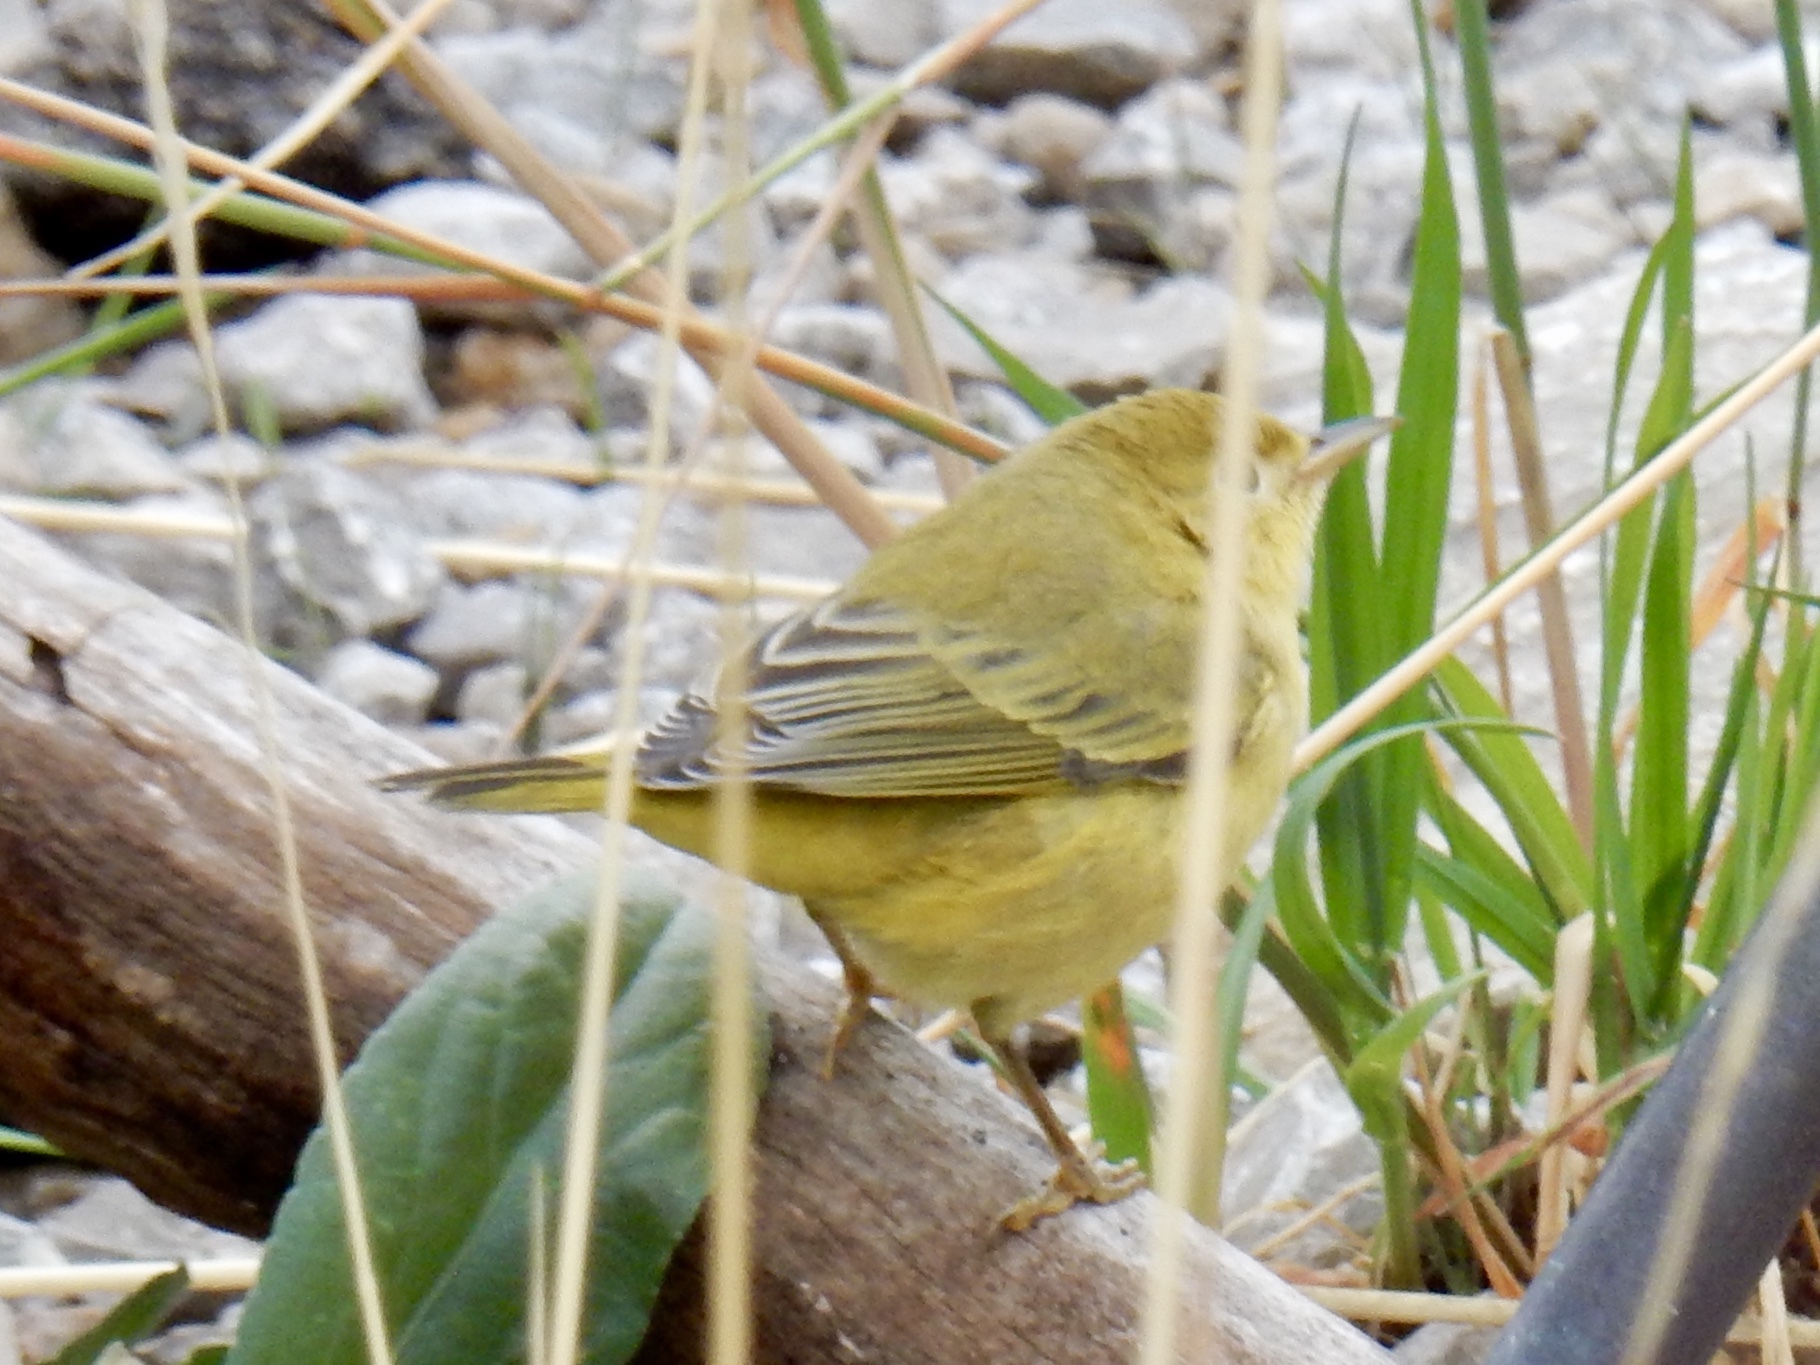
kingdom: Animalia
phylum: Chordata
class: Aves
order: Passeriformes
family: Parulidae
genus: Setophaga
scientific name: Setophaga petechia
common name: Yellow warbler
